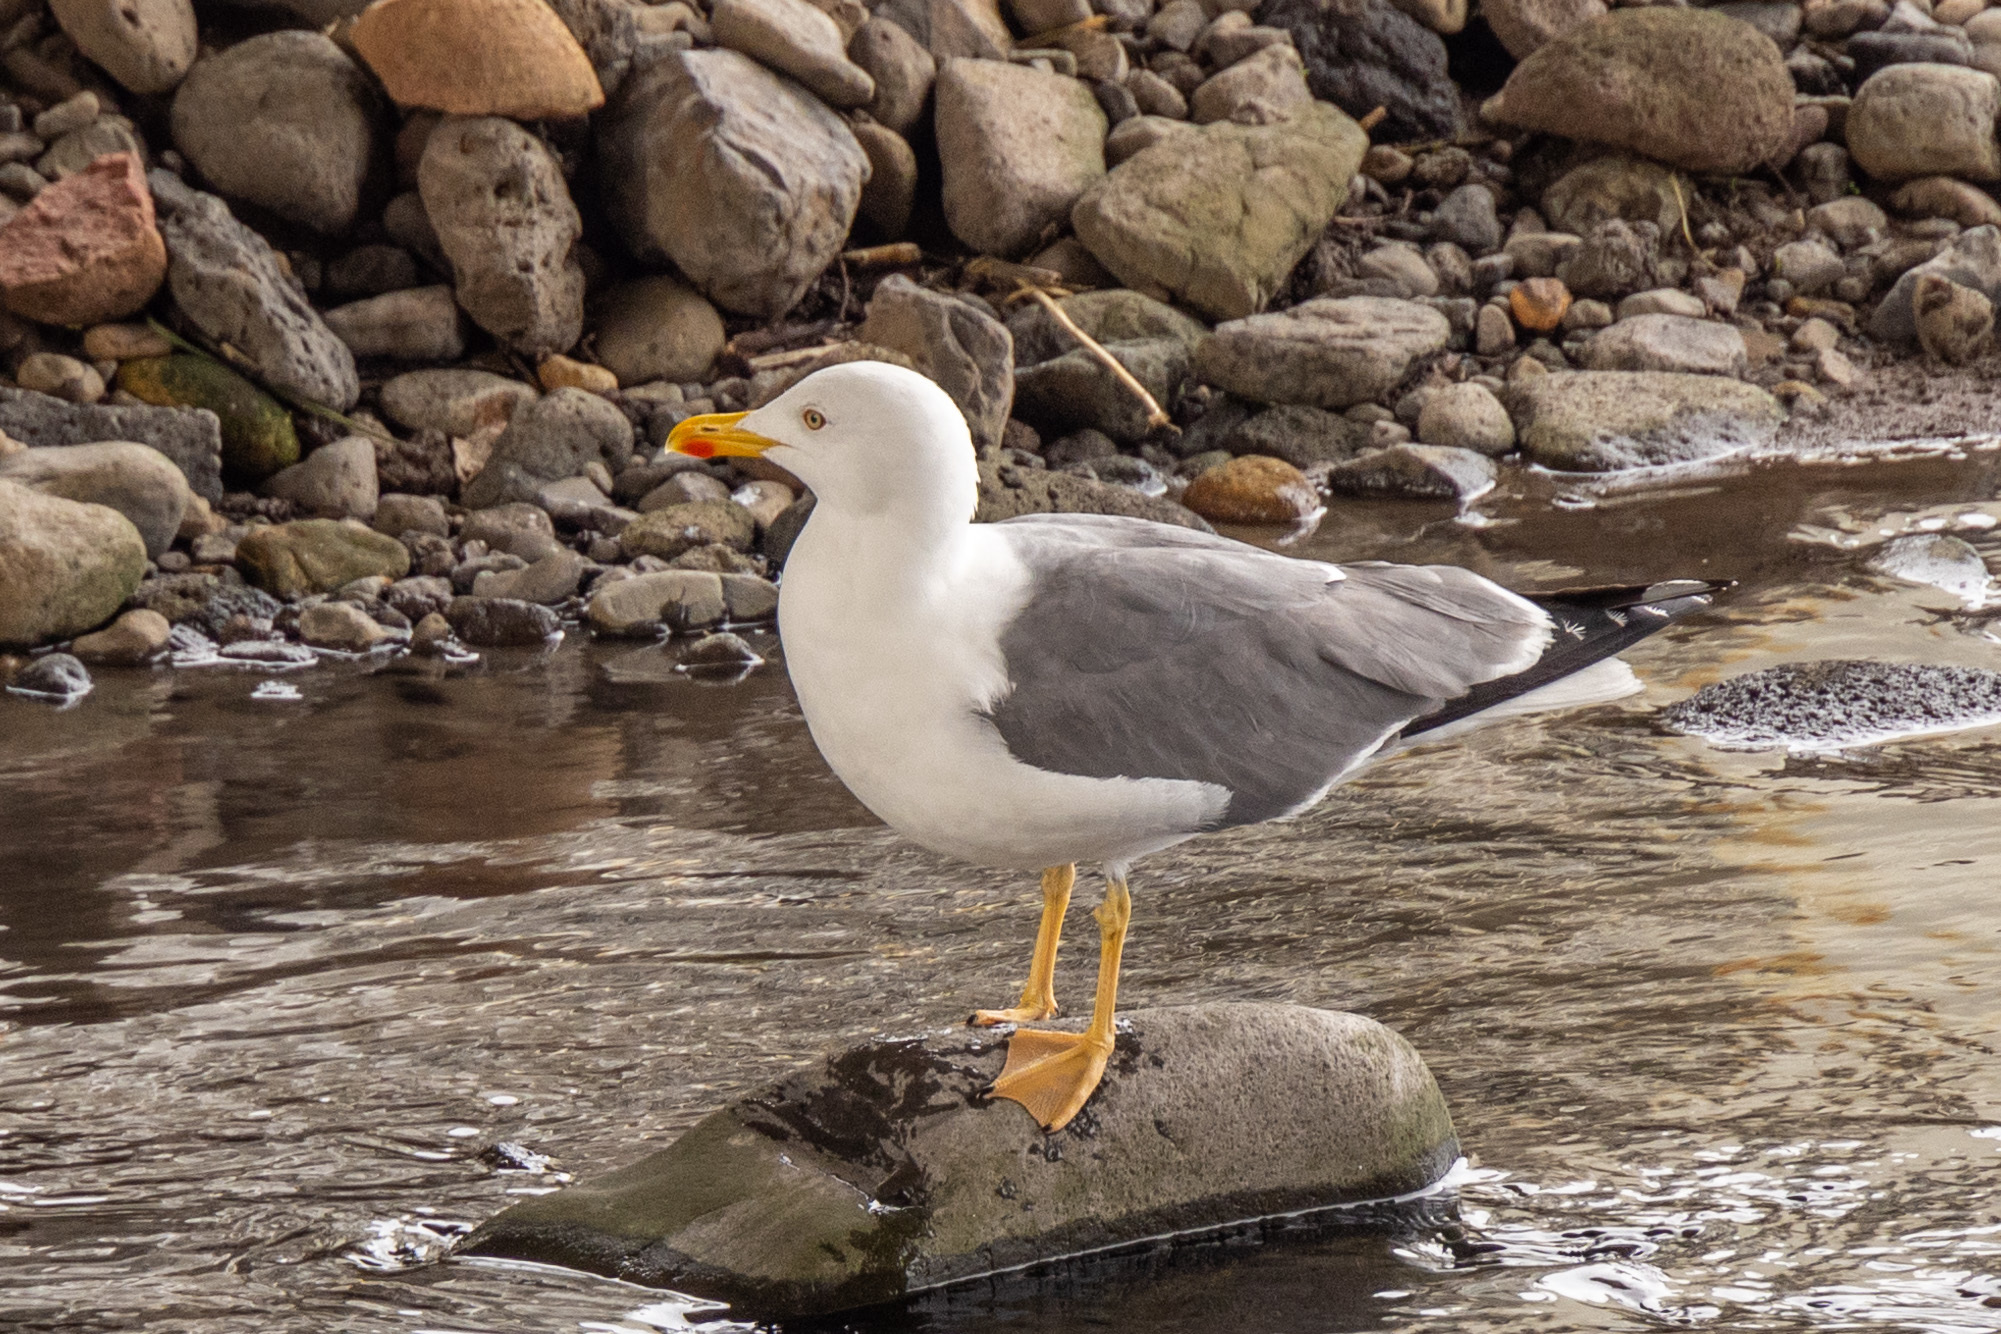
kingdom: Animalia
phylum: Chordata
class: Aves
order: Charadriiformes
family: Laridae
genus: Larus
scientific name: Larus michahellis
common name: Yellow-legged gull
